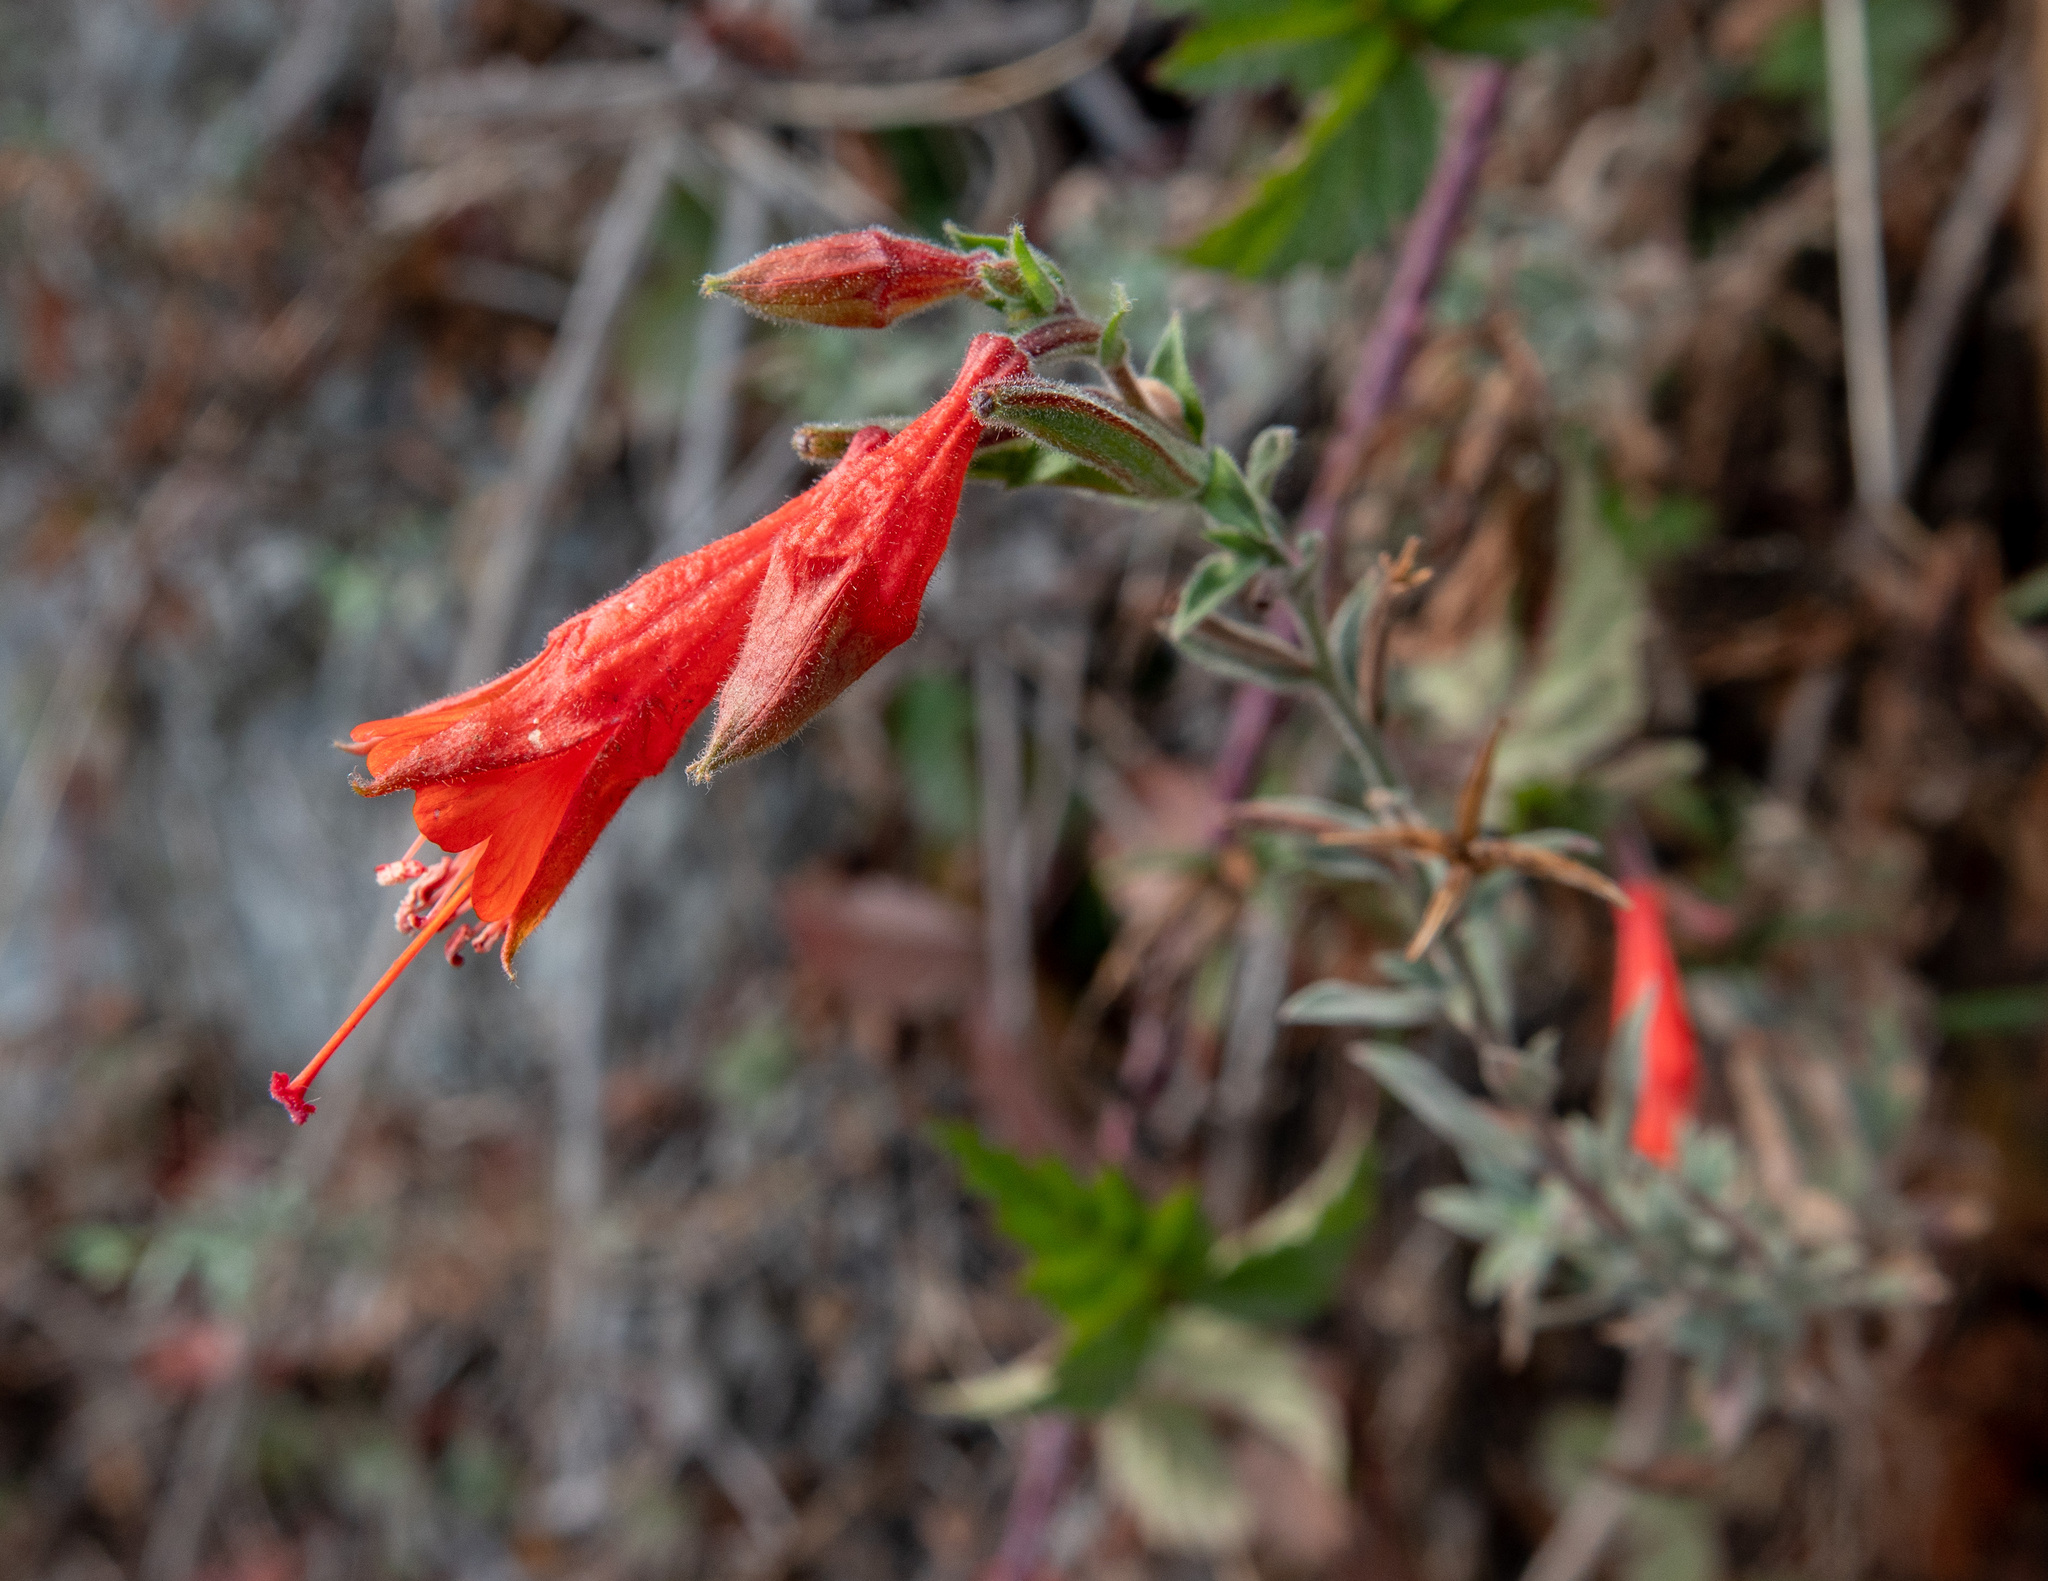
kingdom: Plantae
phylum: Tracheophyta
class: Magnoliopsida
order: Myrtales
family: Onagraceae
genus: Epilobium
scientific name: Epilobium canum
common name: California-fuchsia
